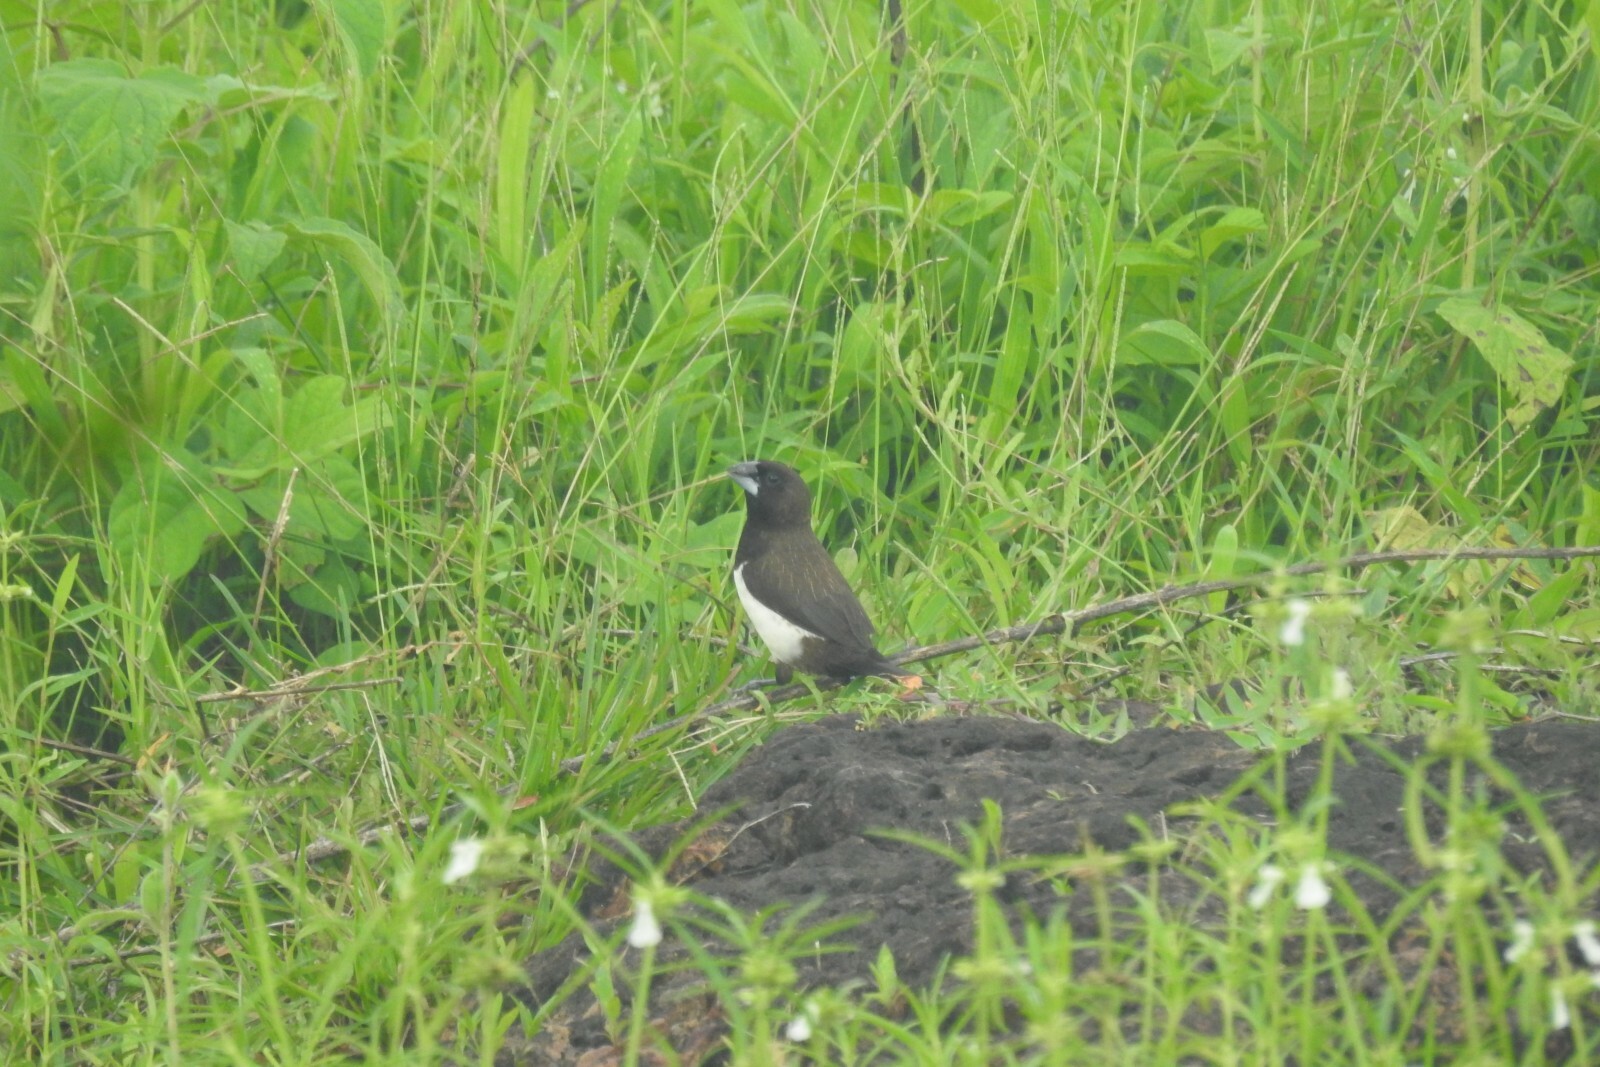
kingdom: Animalia
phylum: Chordata
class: Aves
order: Passeriformes
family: Estrildidae
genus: Lonchura
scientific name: Lonchura striata
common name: White-rumped munia
